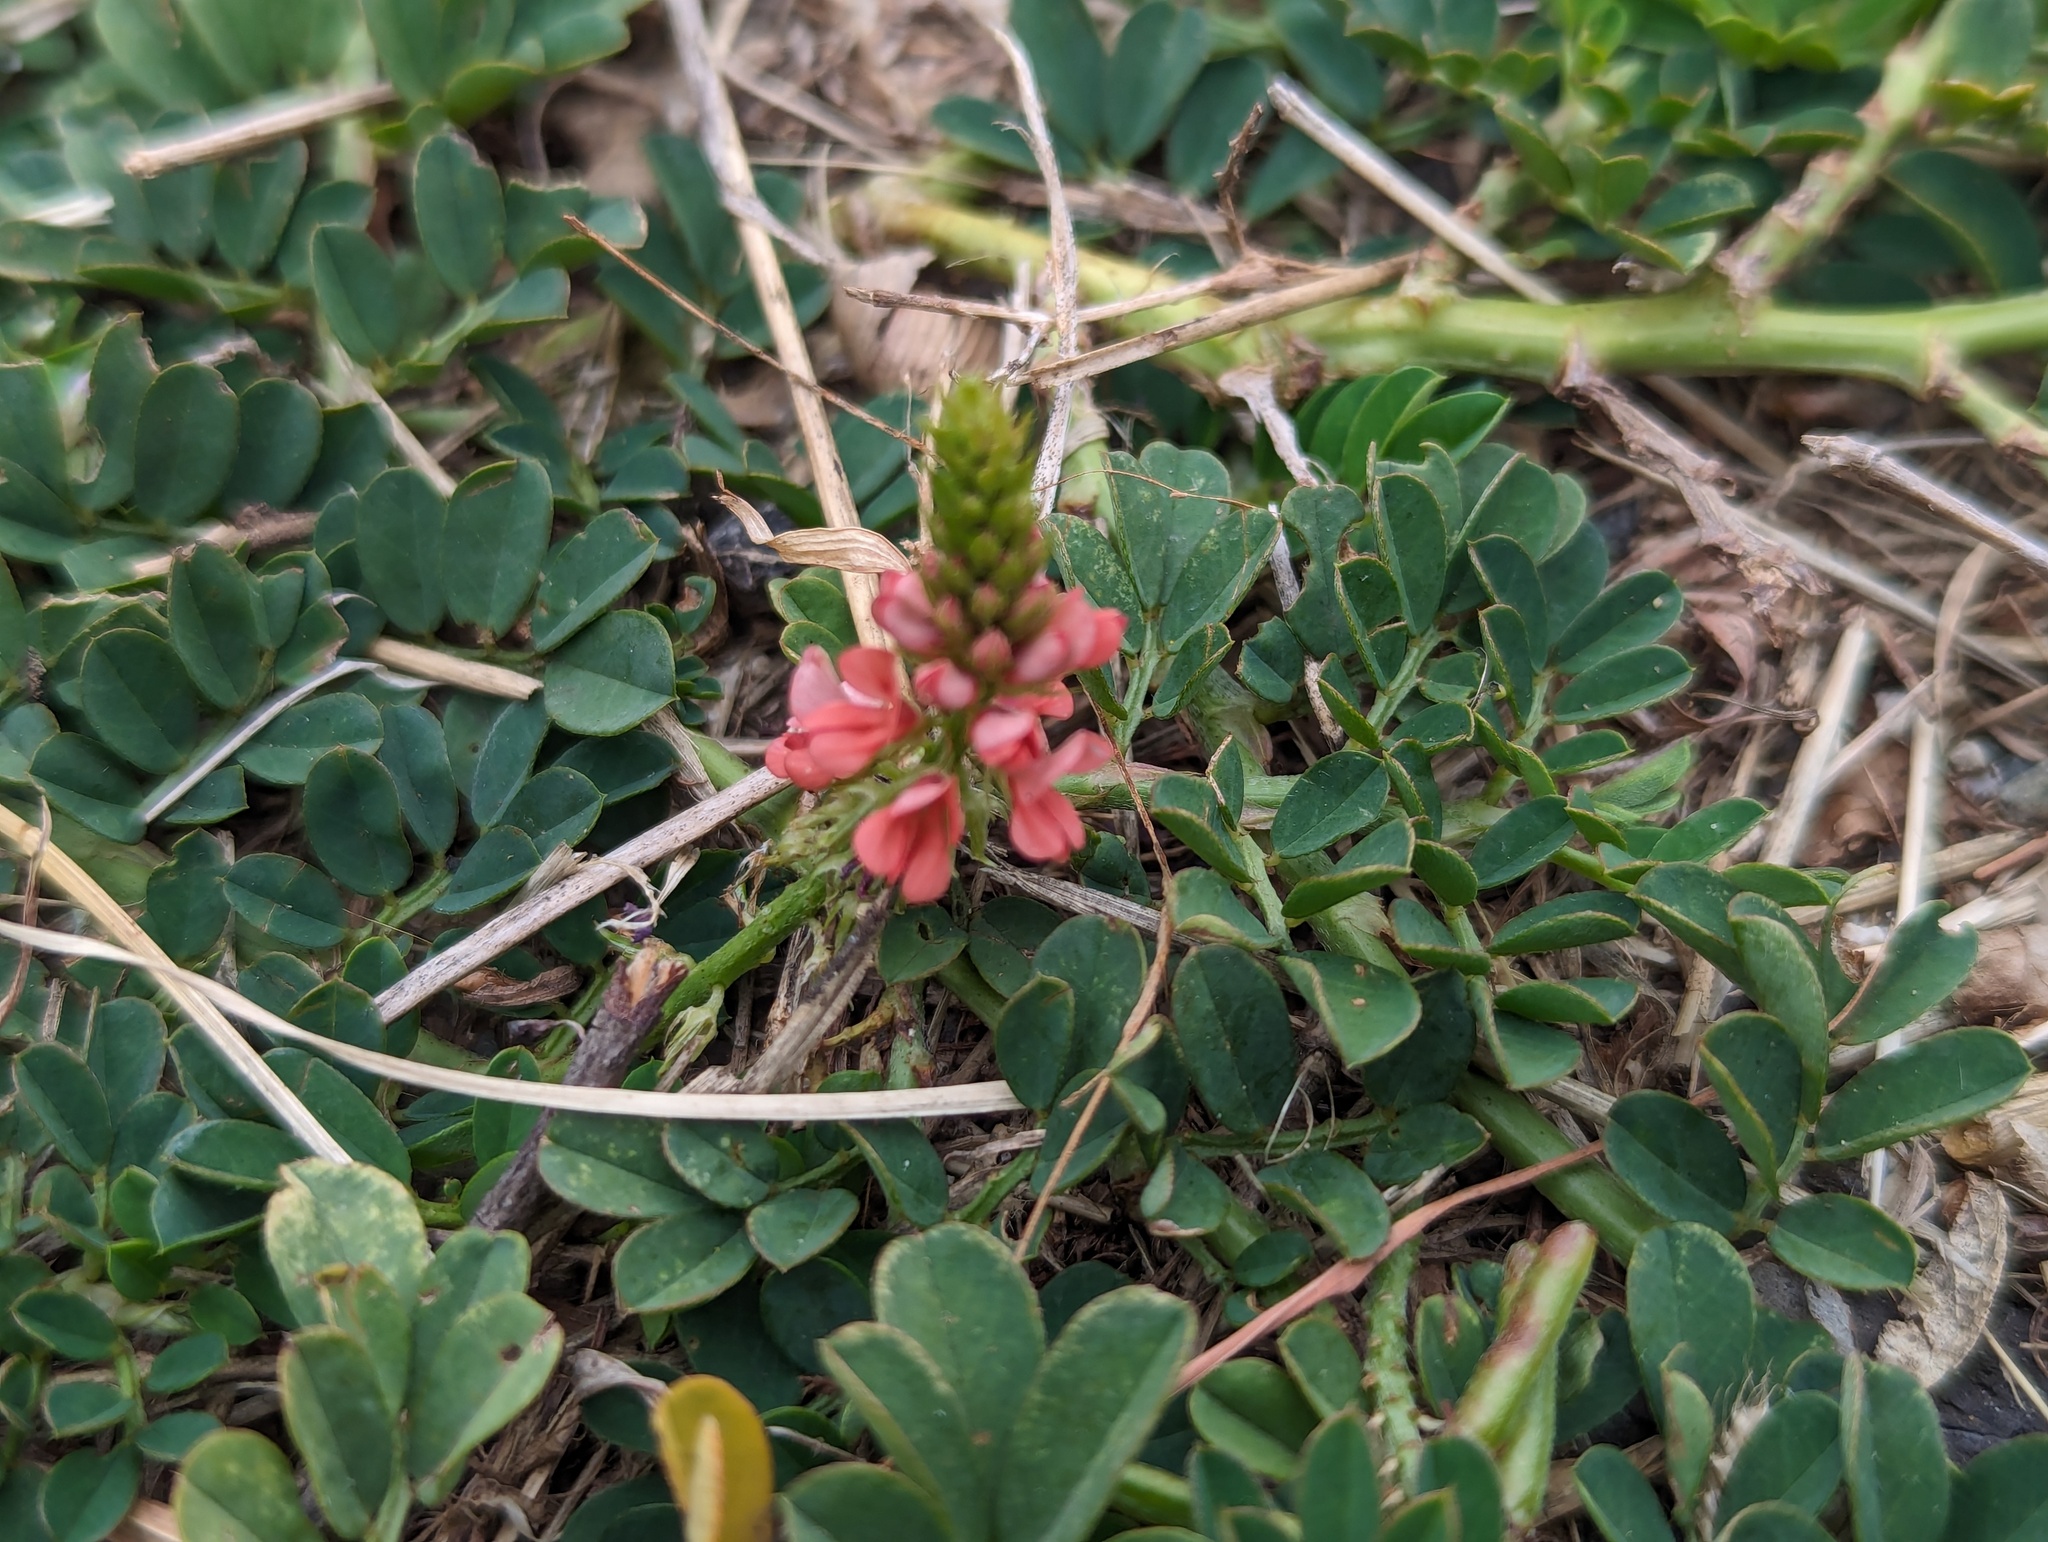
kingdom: Plantae
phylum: Tracheophyta
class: Magnoliopsida
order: Fabales
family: Fabaceae
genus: Indigofera
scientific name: Indigofera spicata
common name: Creeping indigo
